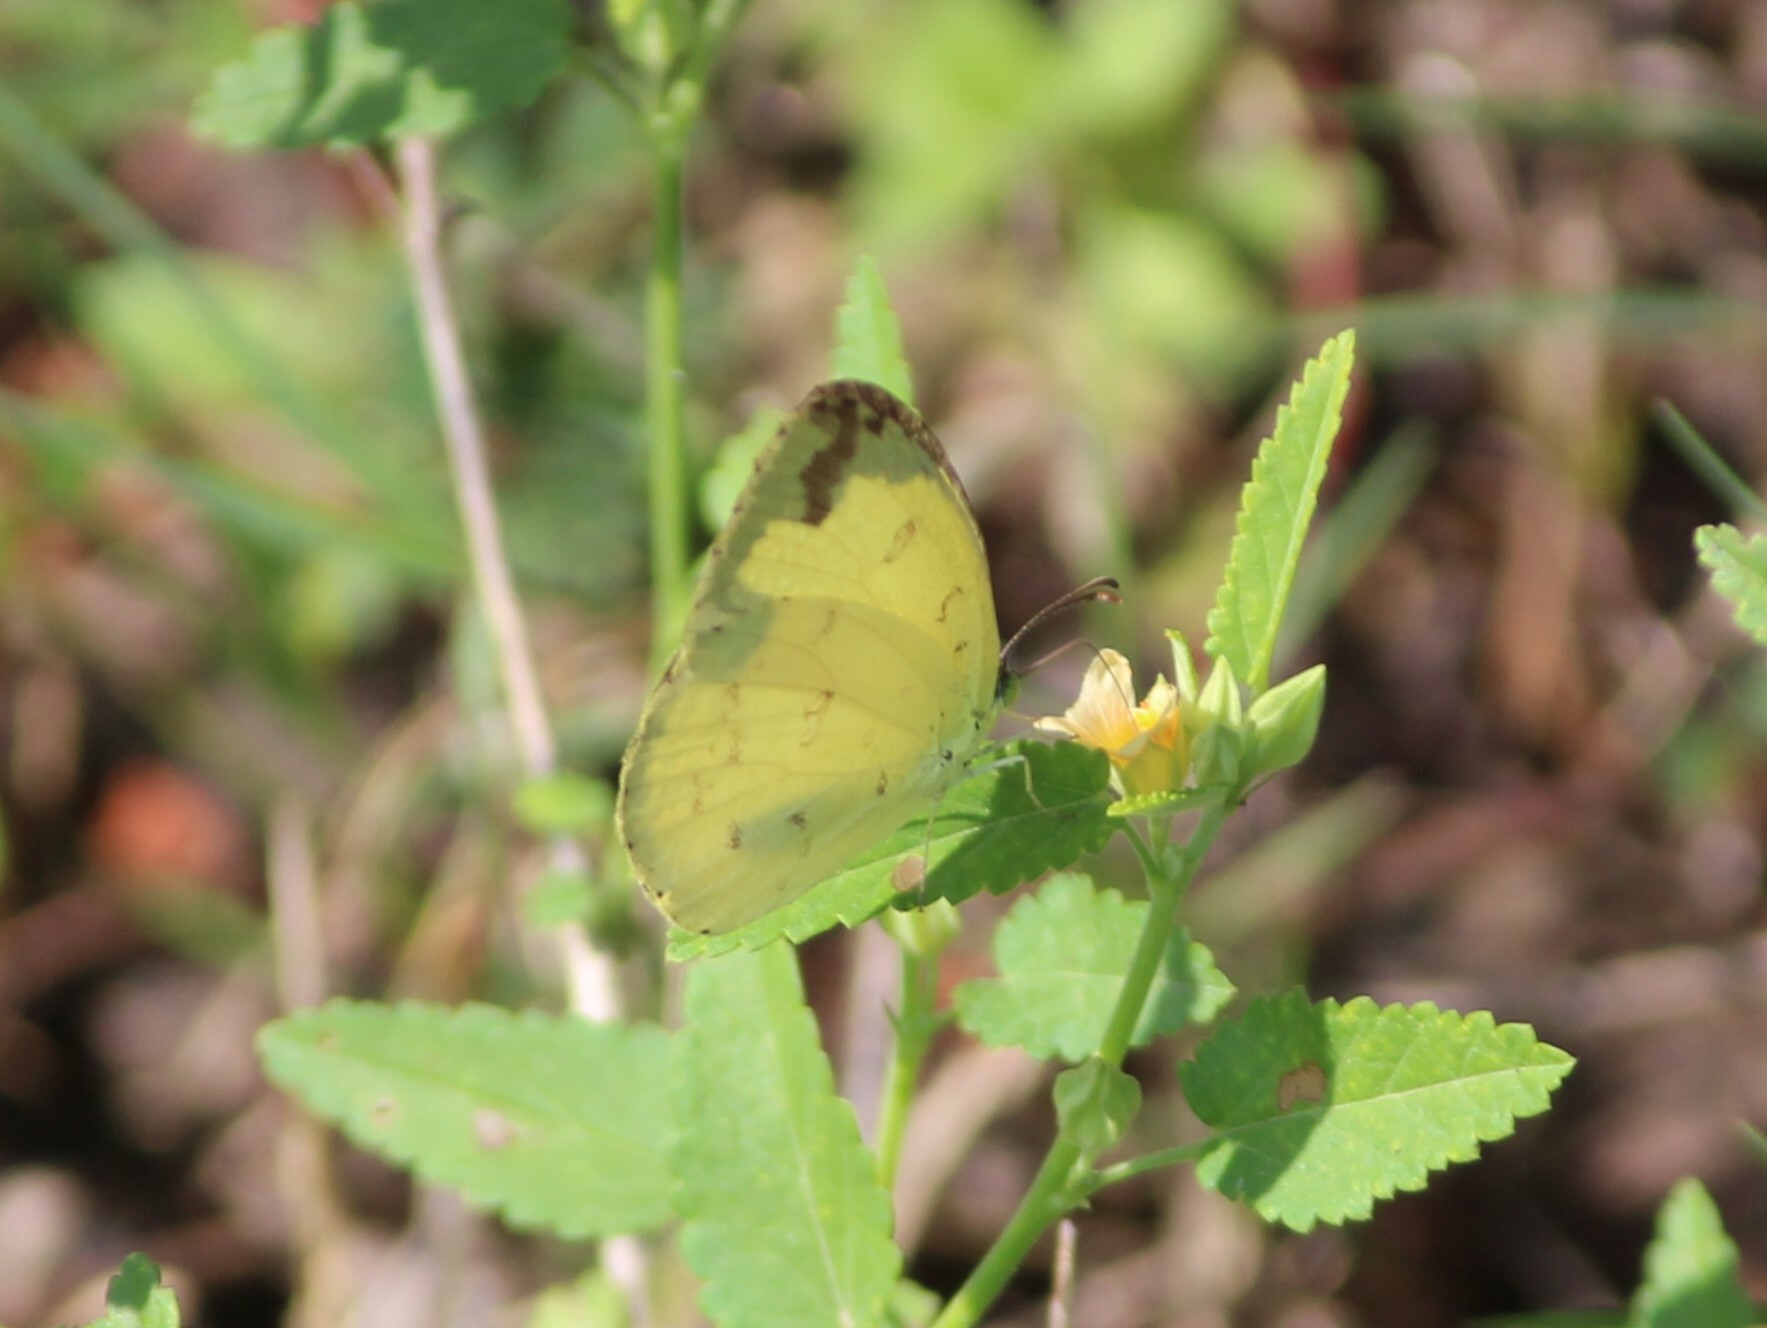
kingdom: Animalia
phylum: Arthropoda
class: Insecta
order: Lepidoptera
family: Pieridae
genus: Eurema
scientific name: Eurema hecabe
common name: Pale grass yellow
